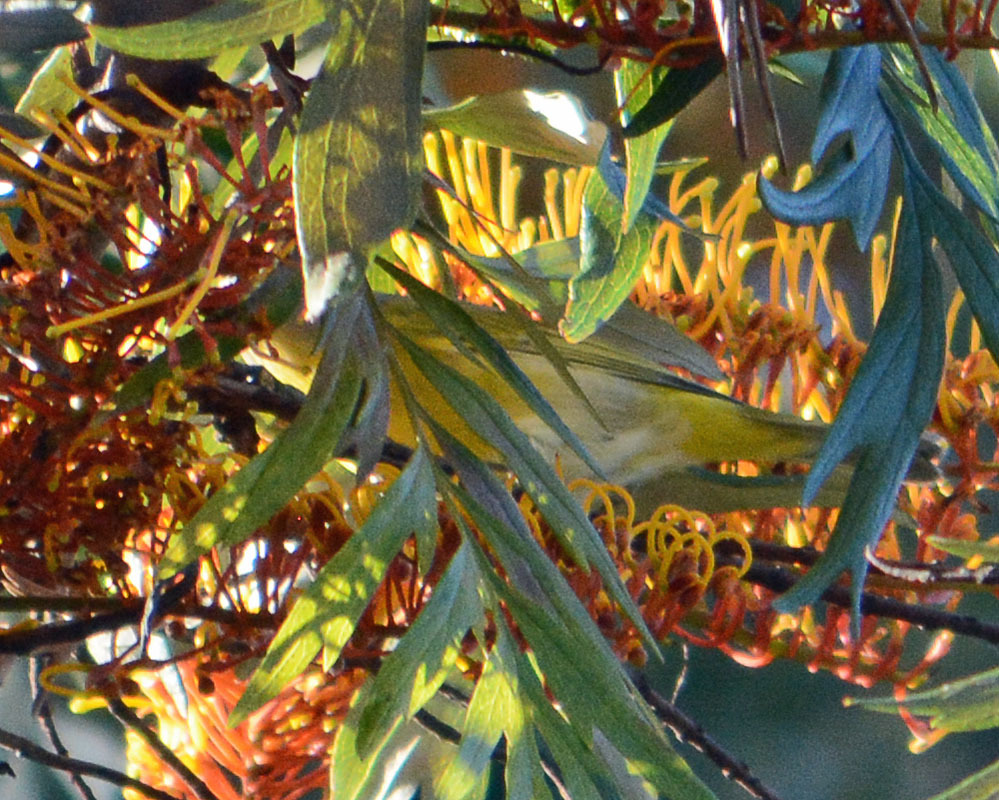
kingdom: Animalia
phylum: Chordata
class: Aves
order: Passeriformes
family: Parulidae
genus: Leiothlypis
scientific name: Leiothlypis ruficapilla
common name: Nashville warbler
